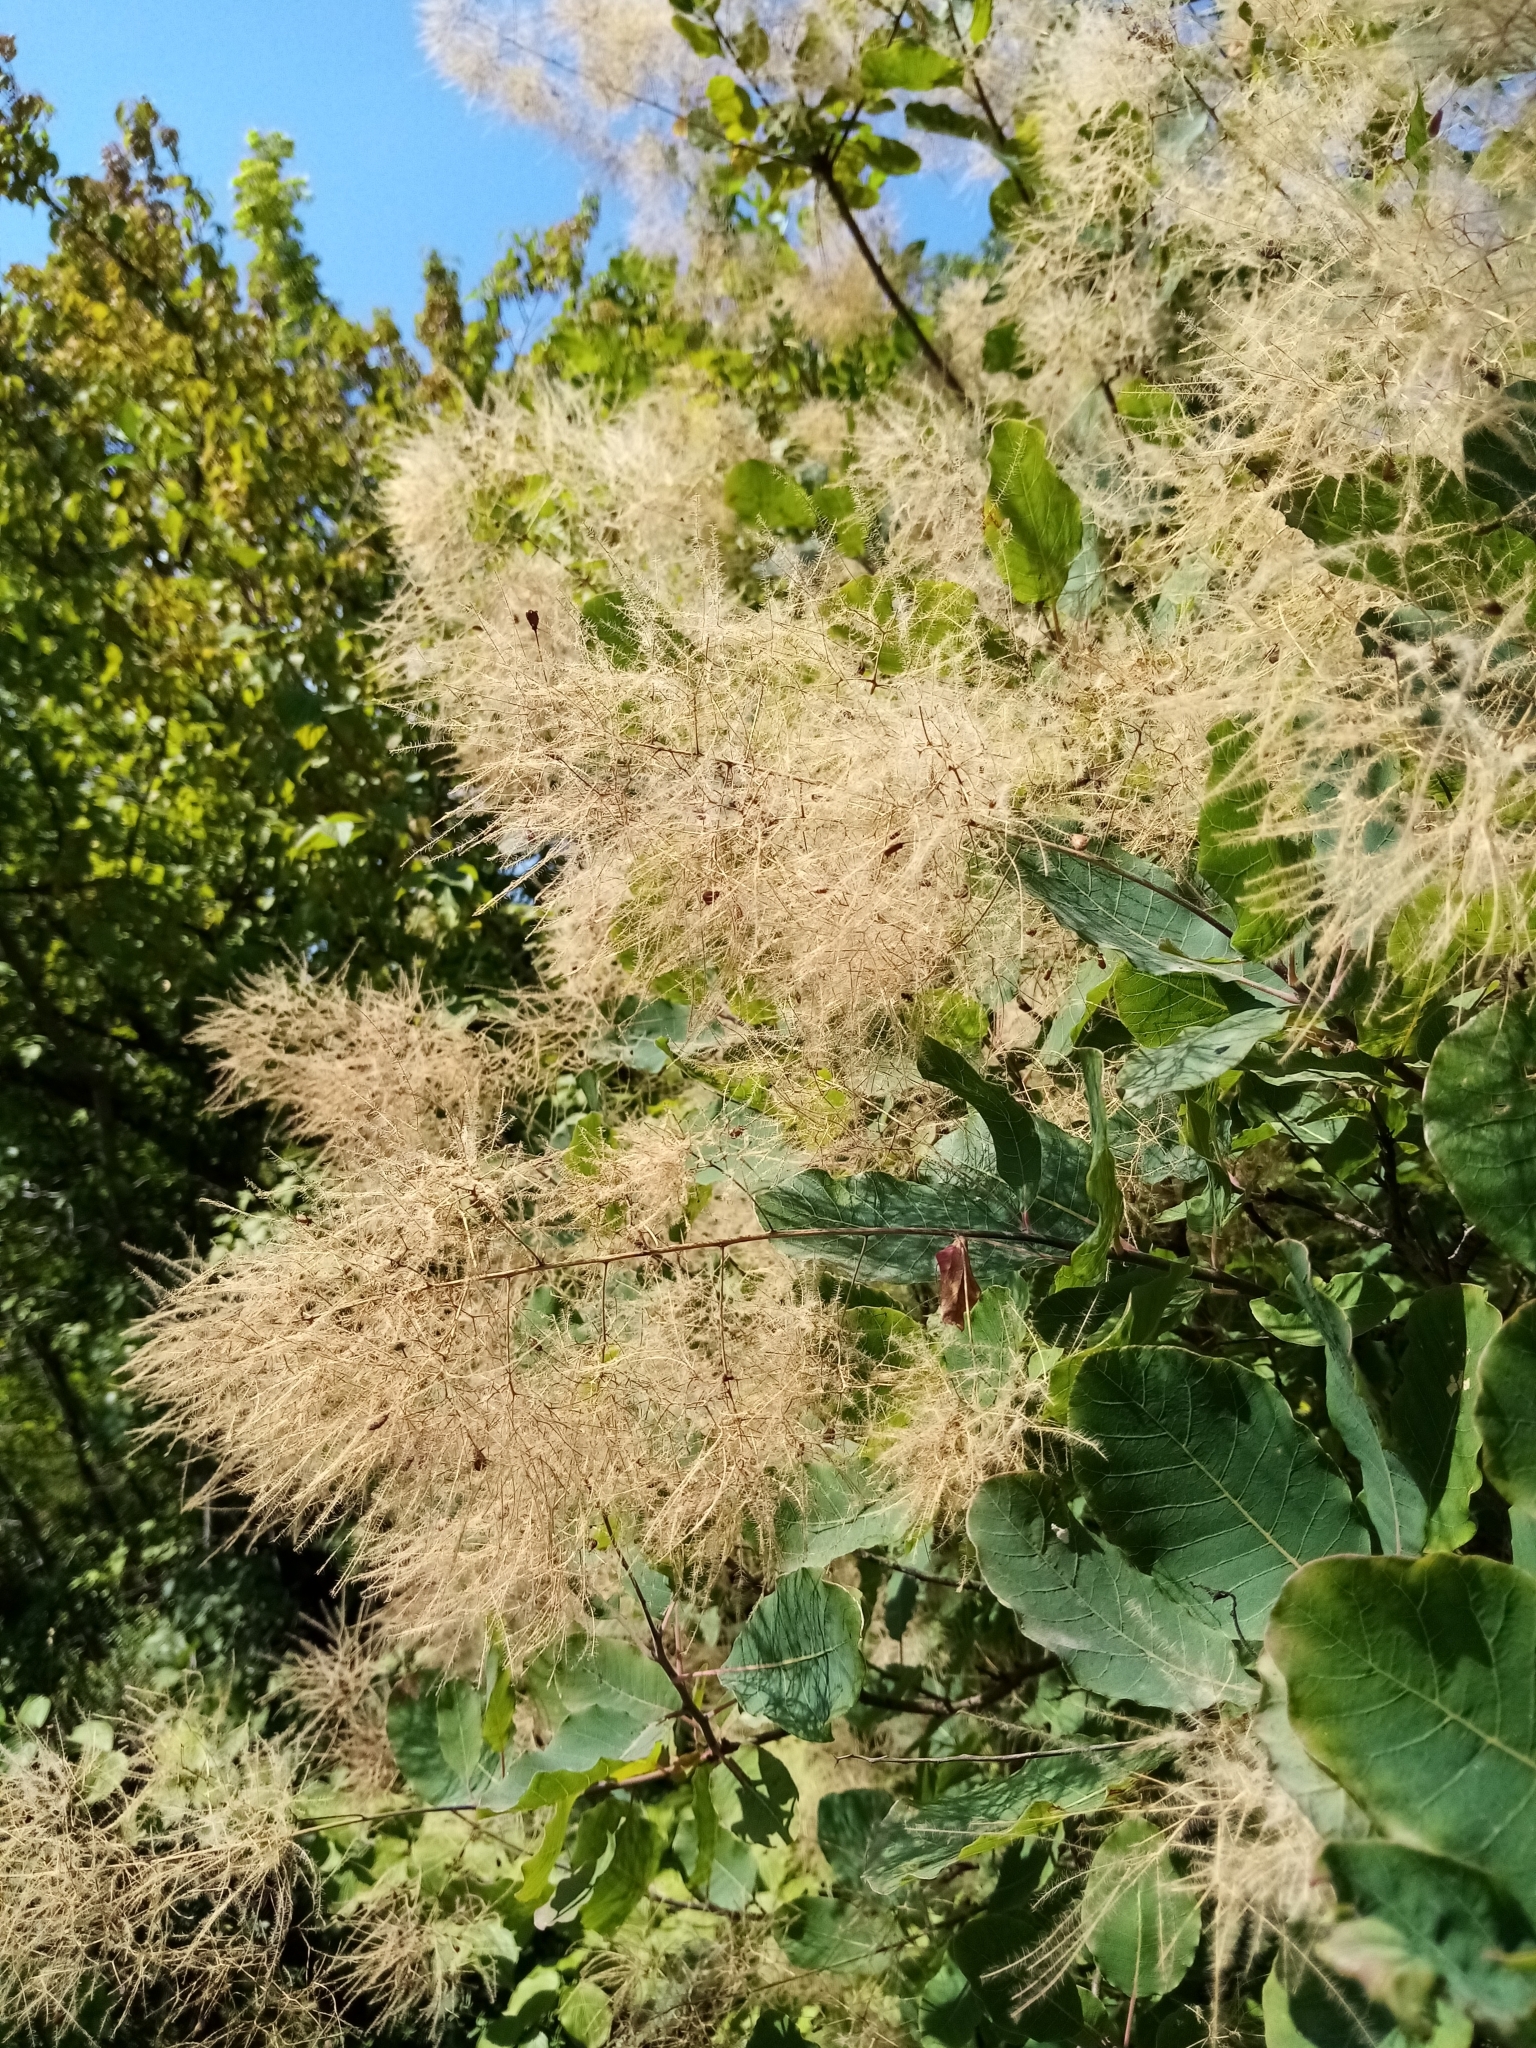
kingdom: Plantae
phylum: Tracheophyta
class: Magnoliopsida
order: Sapindales
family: Anacardiaceae
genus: Cotinus
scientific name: Cotinus coggygria
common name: Smoke-tree
